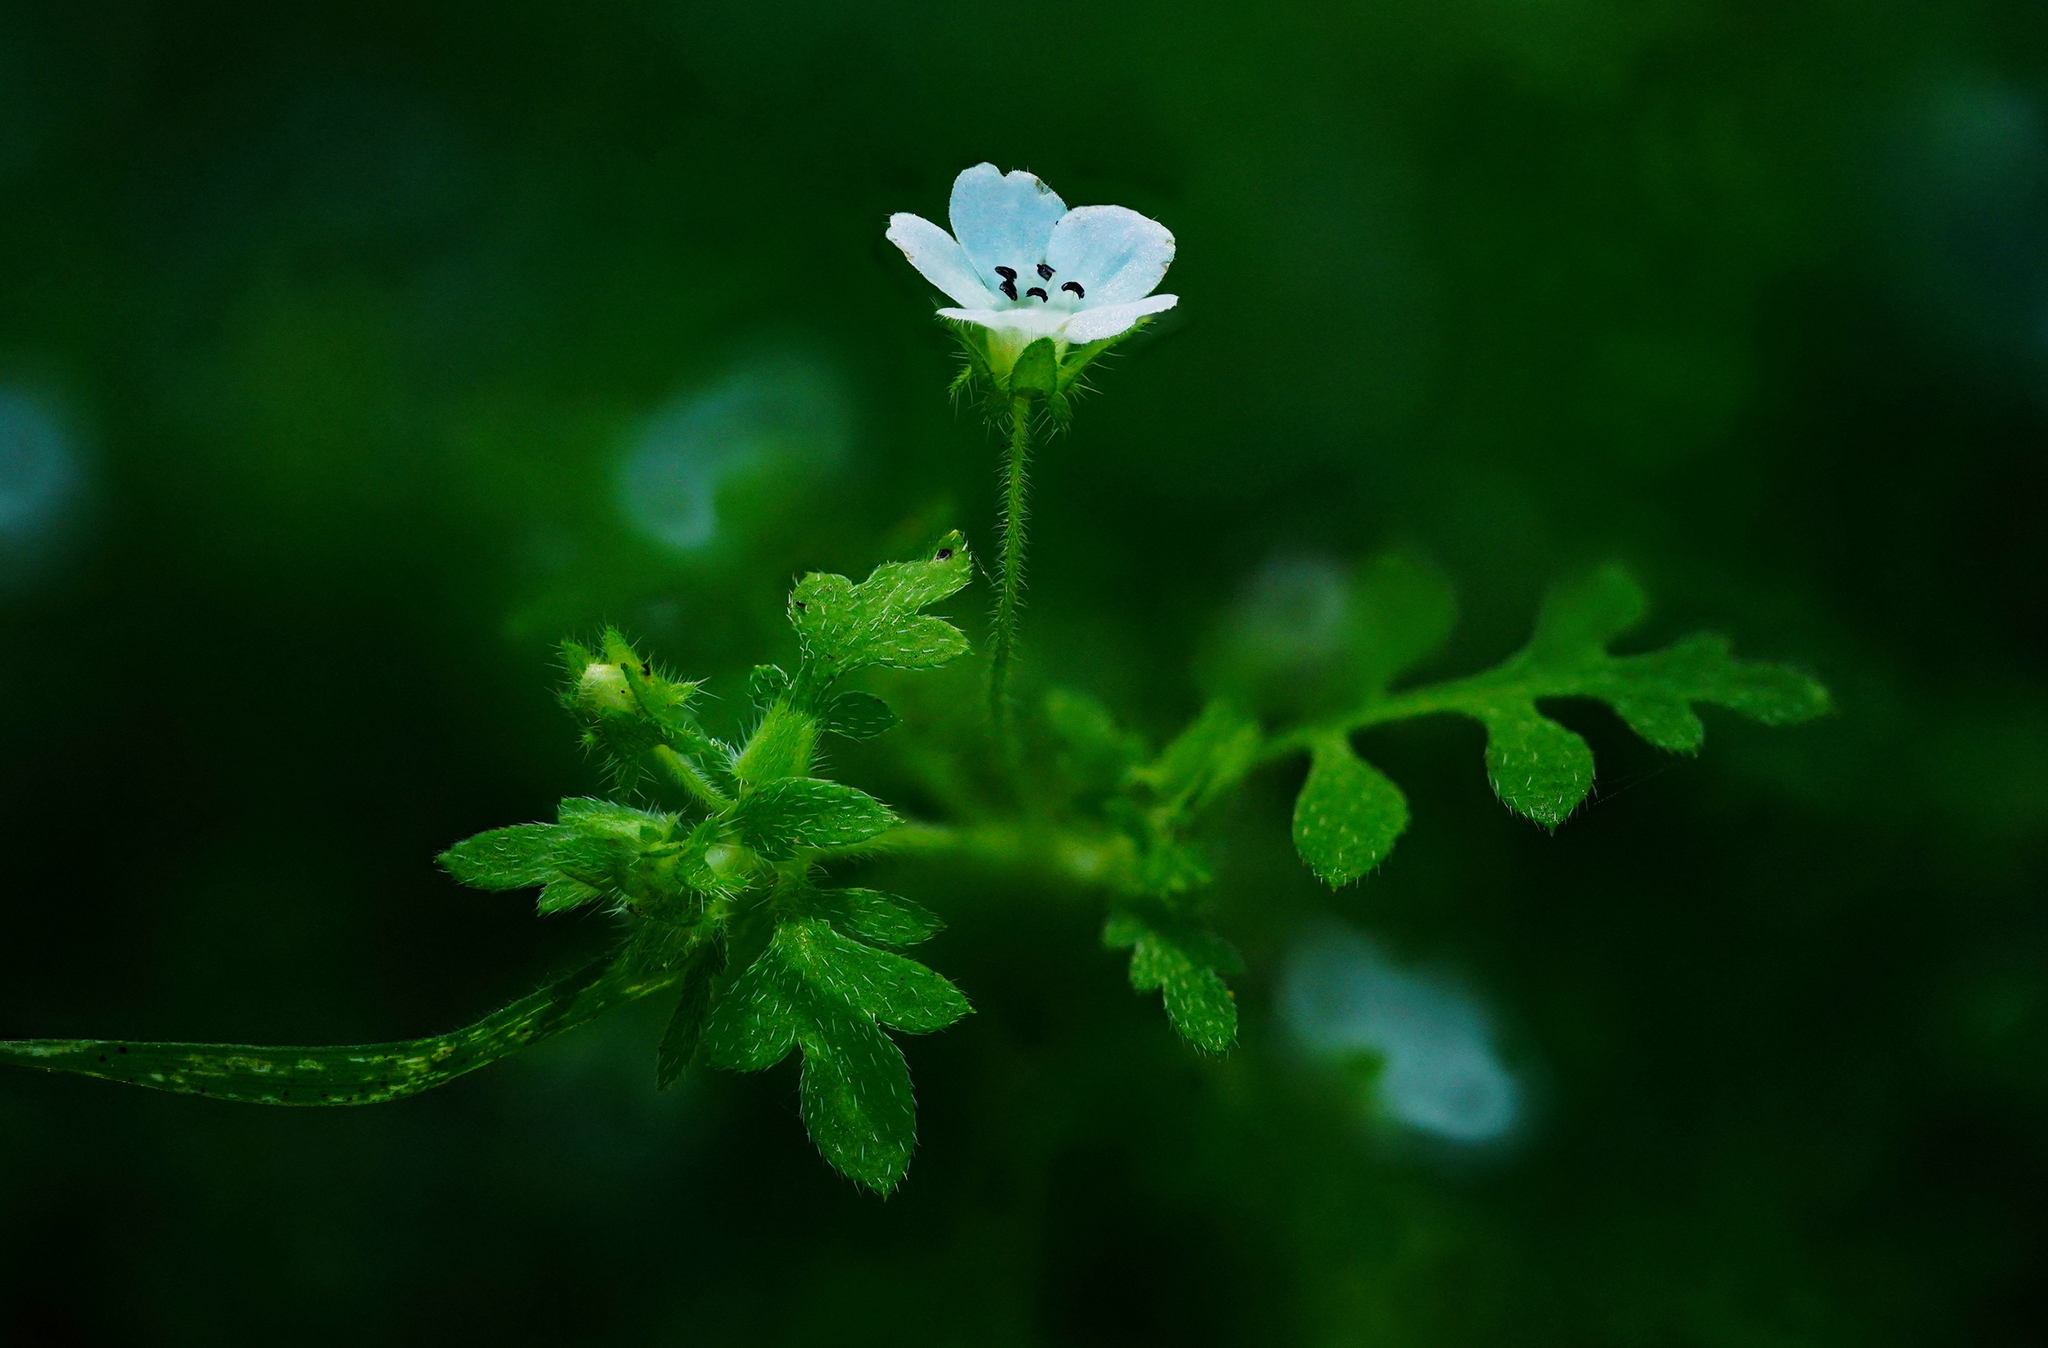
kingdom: Plantae
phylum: Tracheophyta
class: Magnoliopsida
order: Boraginales
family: Hydrophyllaceae
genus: Nemophila
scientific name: Nemophila heterophylla
